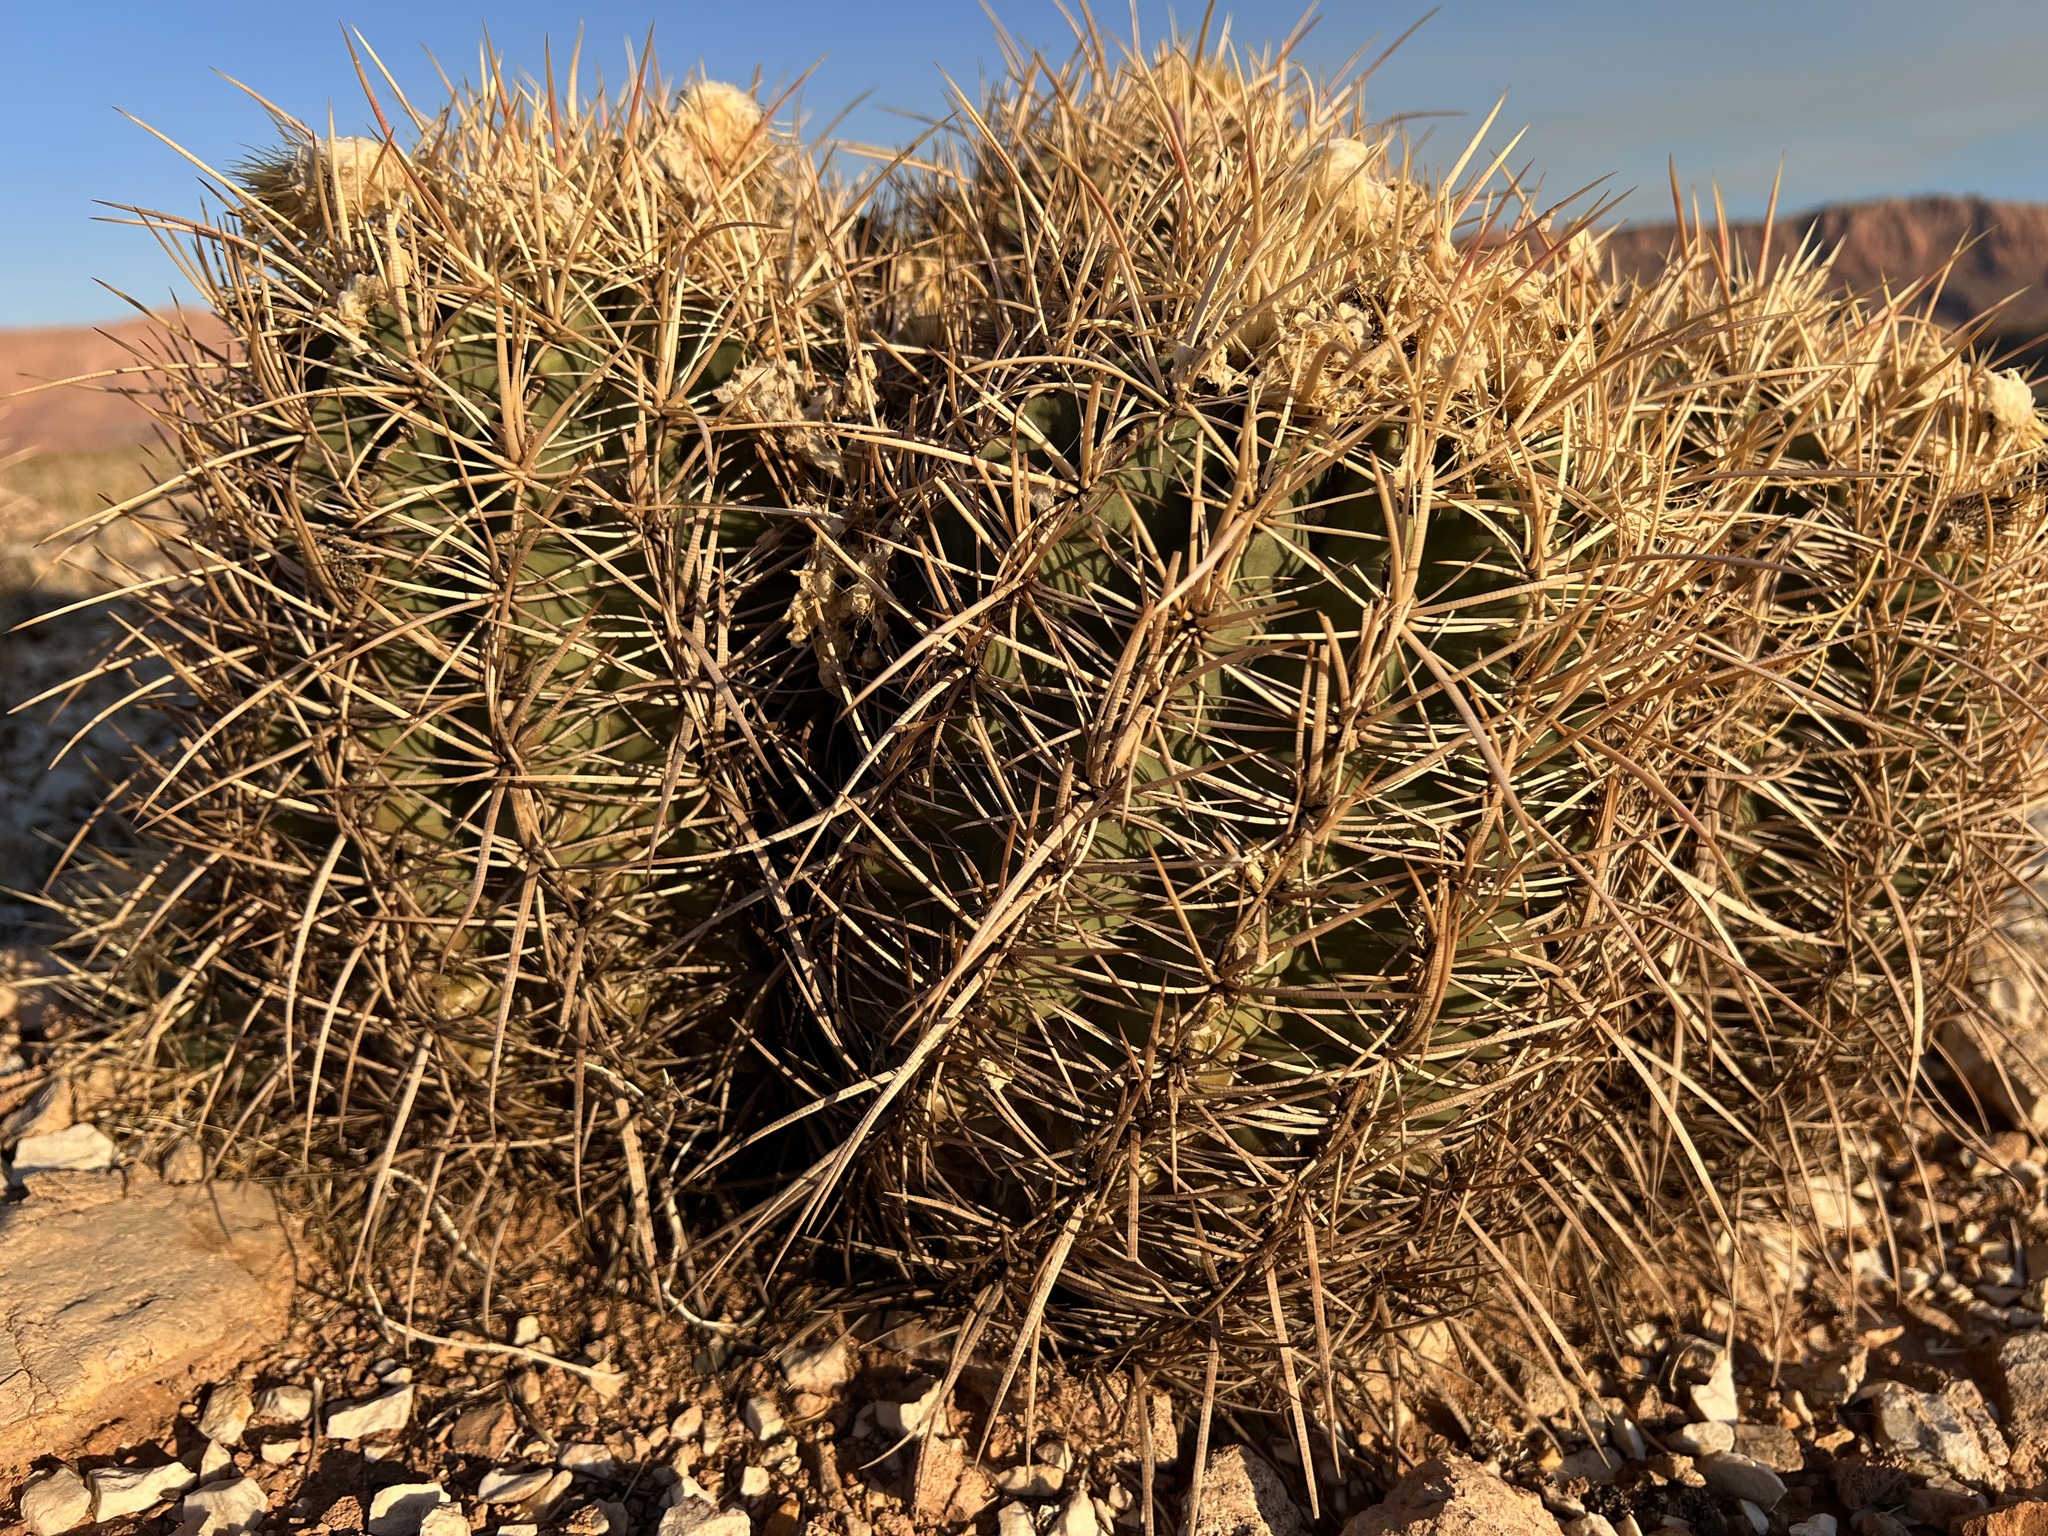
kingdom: Plantae
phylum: Tracheophyta
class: Magnoliopsida
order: Caryophyllales
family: Cactaceae
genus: Echinocactus
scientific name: Echinocactus polycephalus
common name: Cottontop cactus
